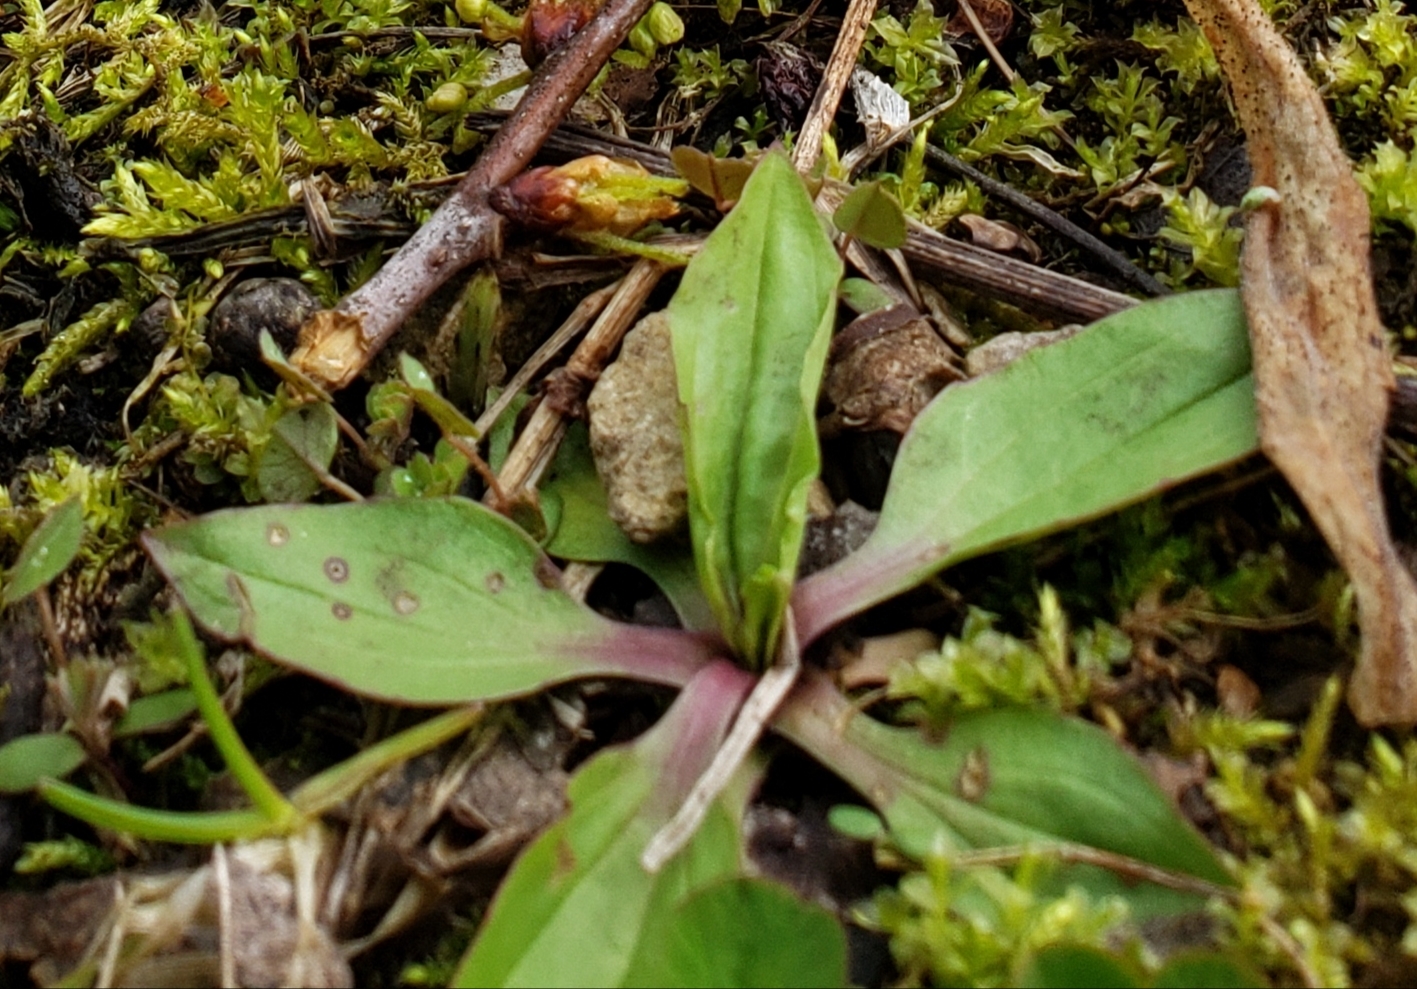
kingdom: Plantae
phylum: Tracheophyta
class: Magnoliopsida
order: Lamiales
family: Plantaginaceae
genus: Plantago
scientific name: Plantago rugelii
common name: American plantain
